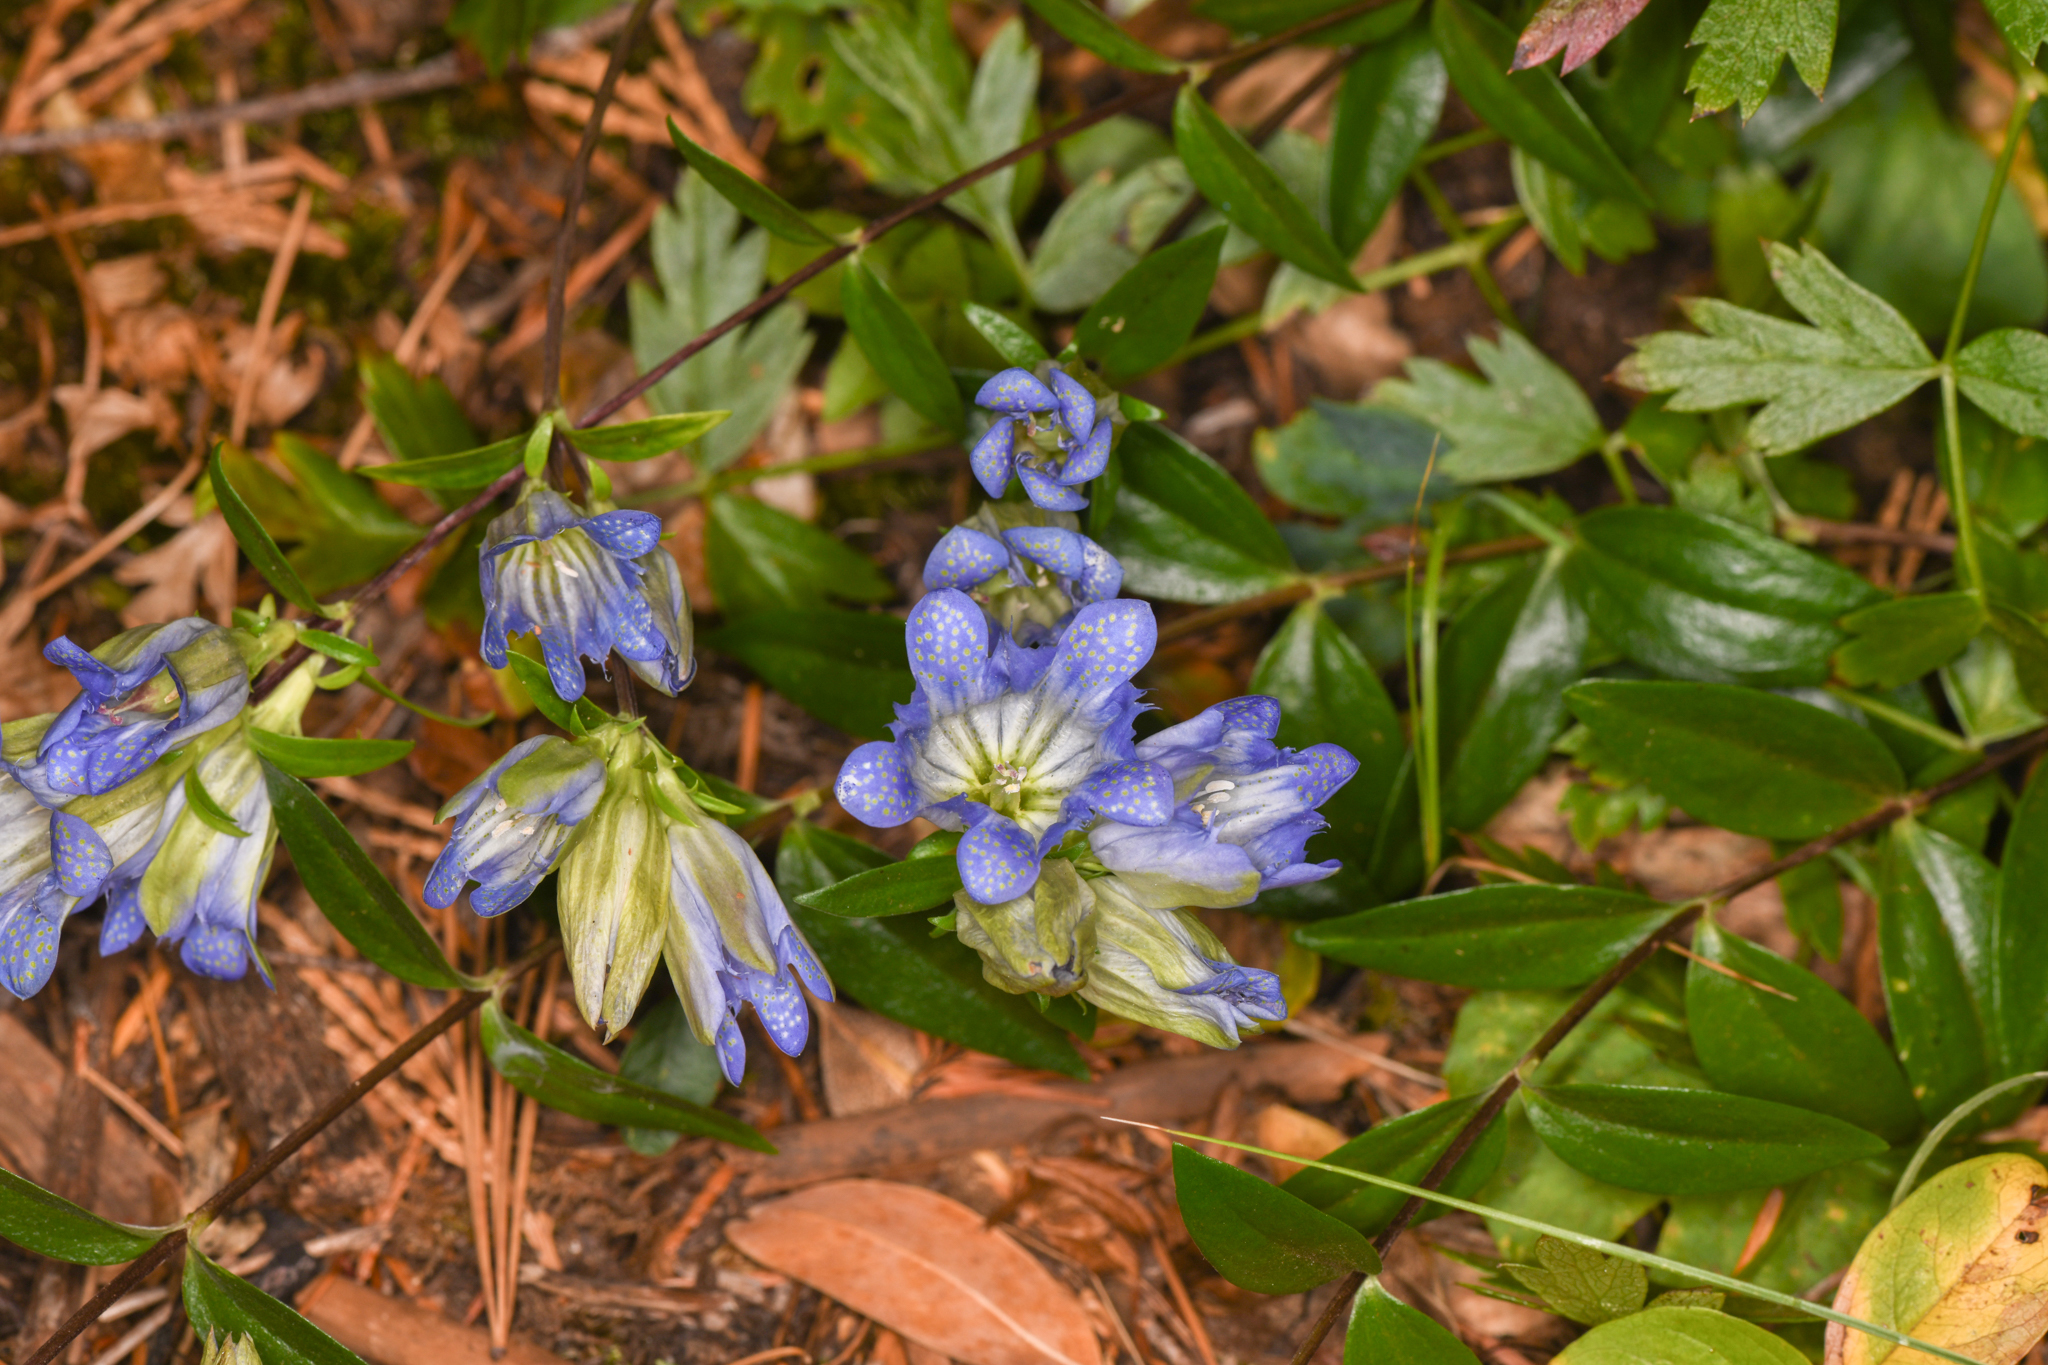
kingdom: Plantae
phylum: Tracheophyta
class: Magnoliopsida
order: Gentianales
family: Gentianaceae
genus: Gentiana
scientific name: Gentiana affinis
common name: Rocky mountain gentian
